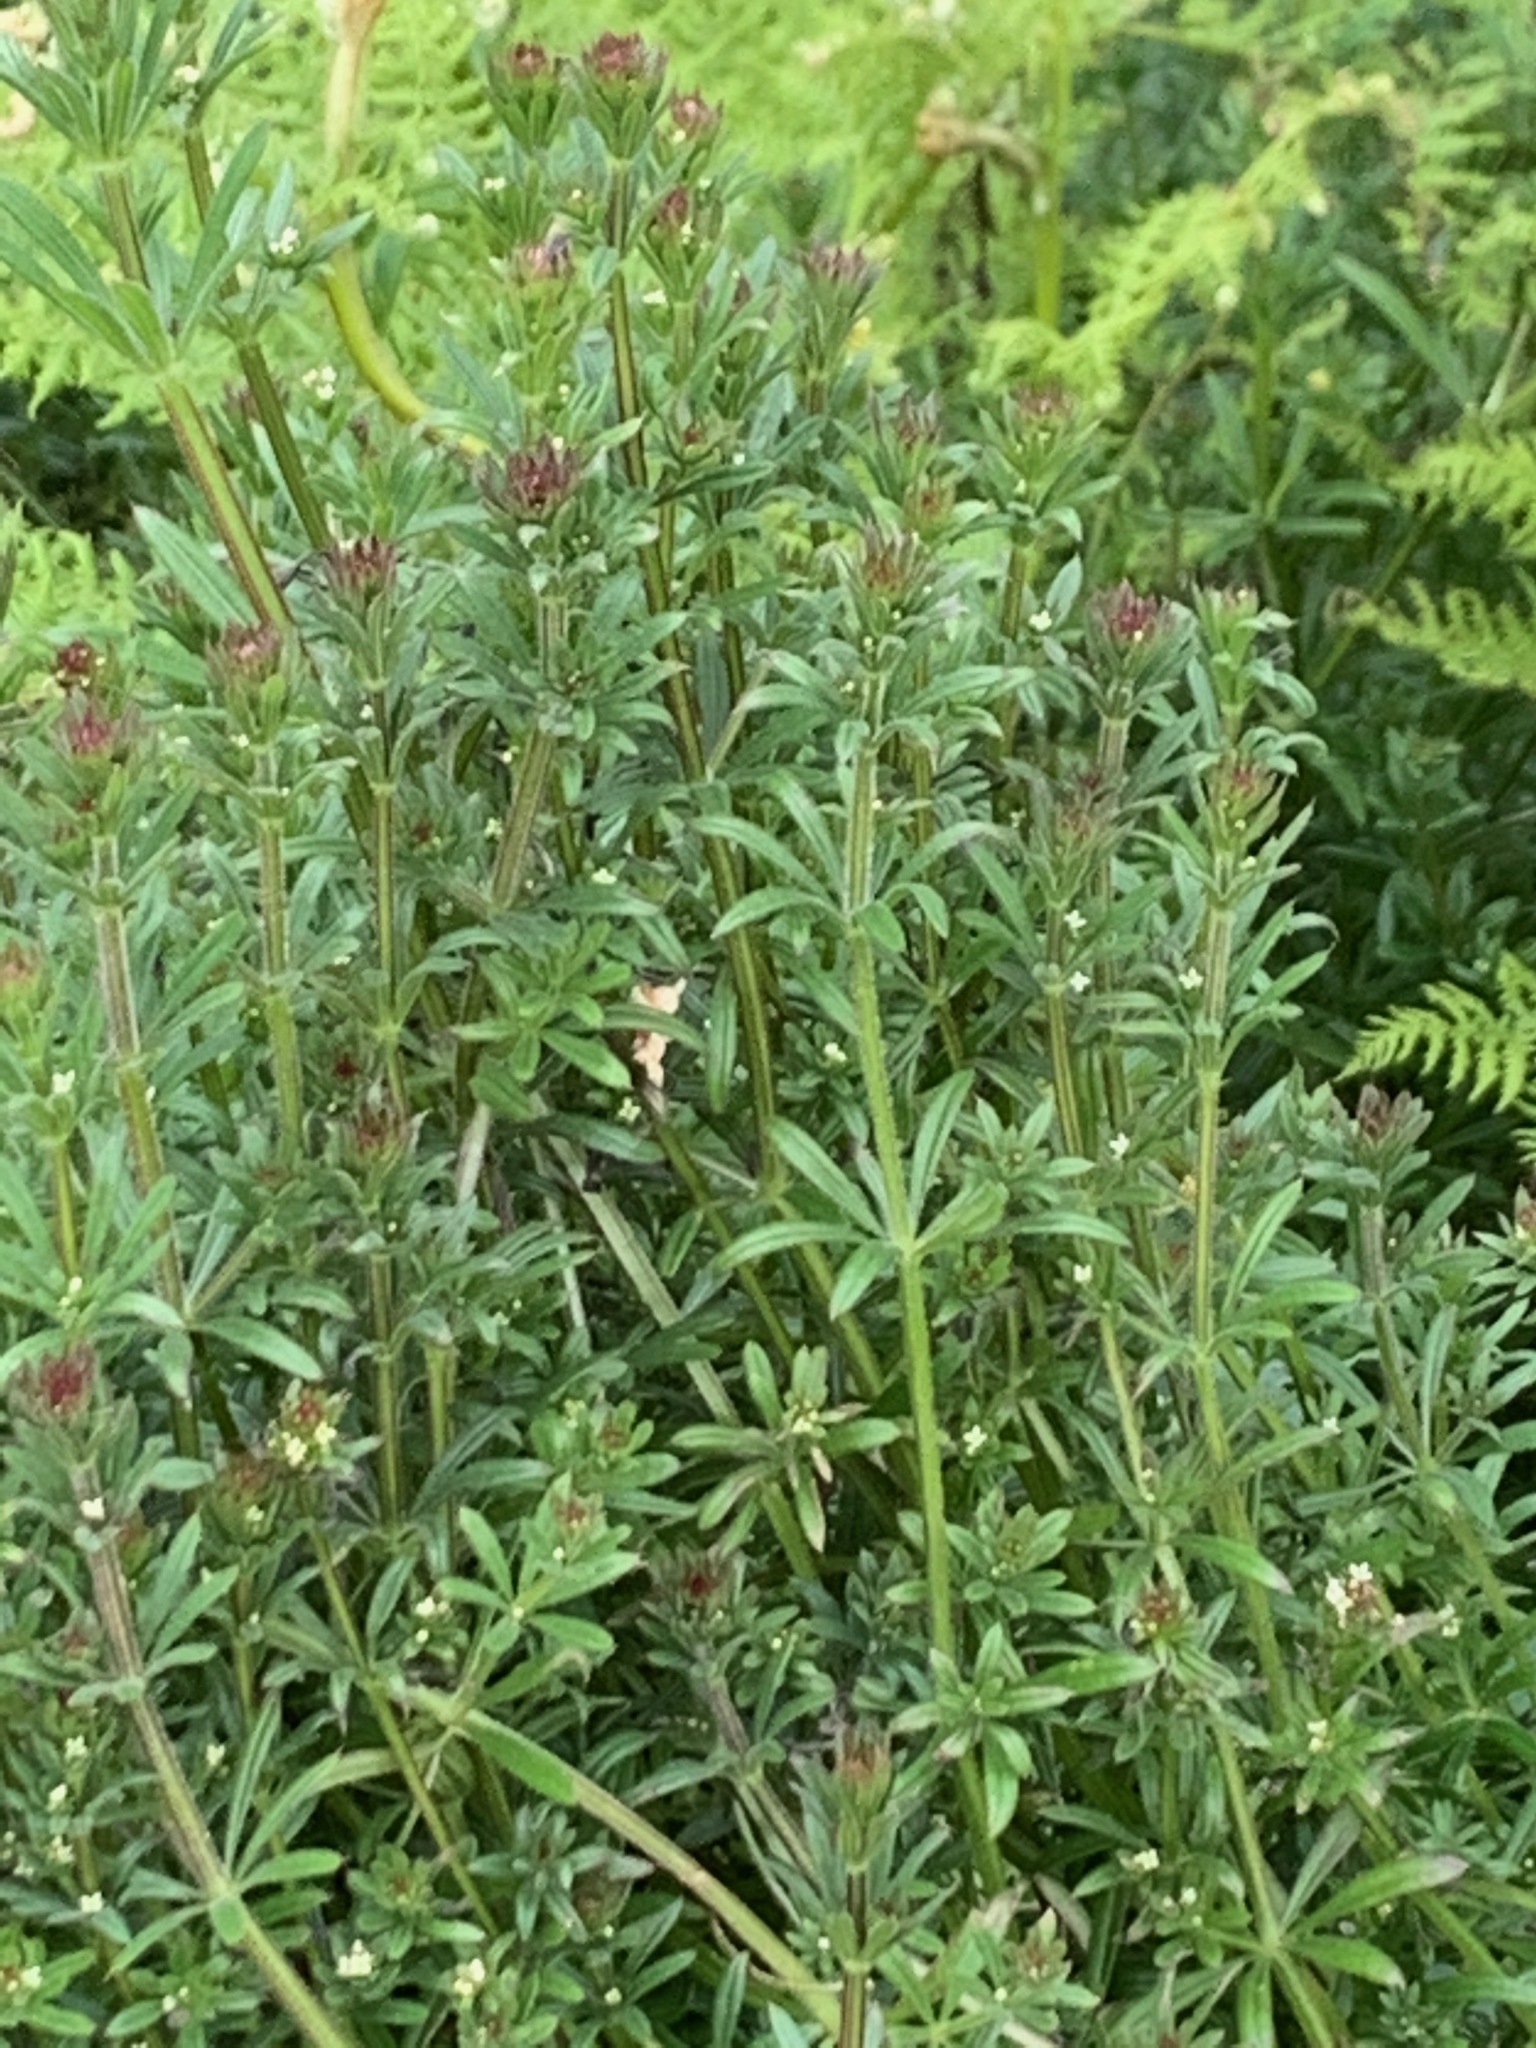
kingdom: Plantae
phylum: Tracheophyta
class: Magnoliopsida
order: Gentianales
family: Rubiaceae
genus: Galium
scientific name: Galium aparine
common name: Cleavers
